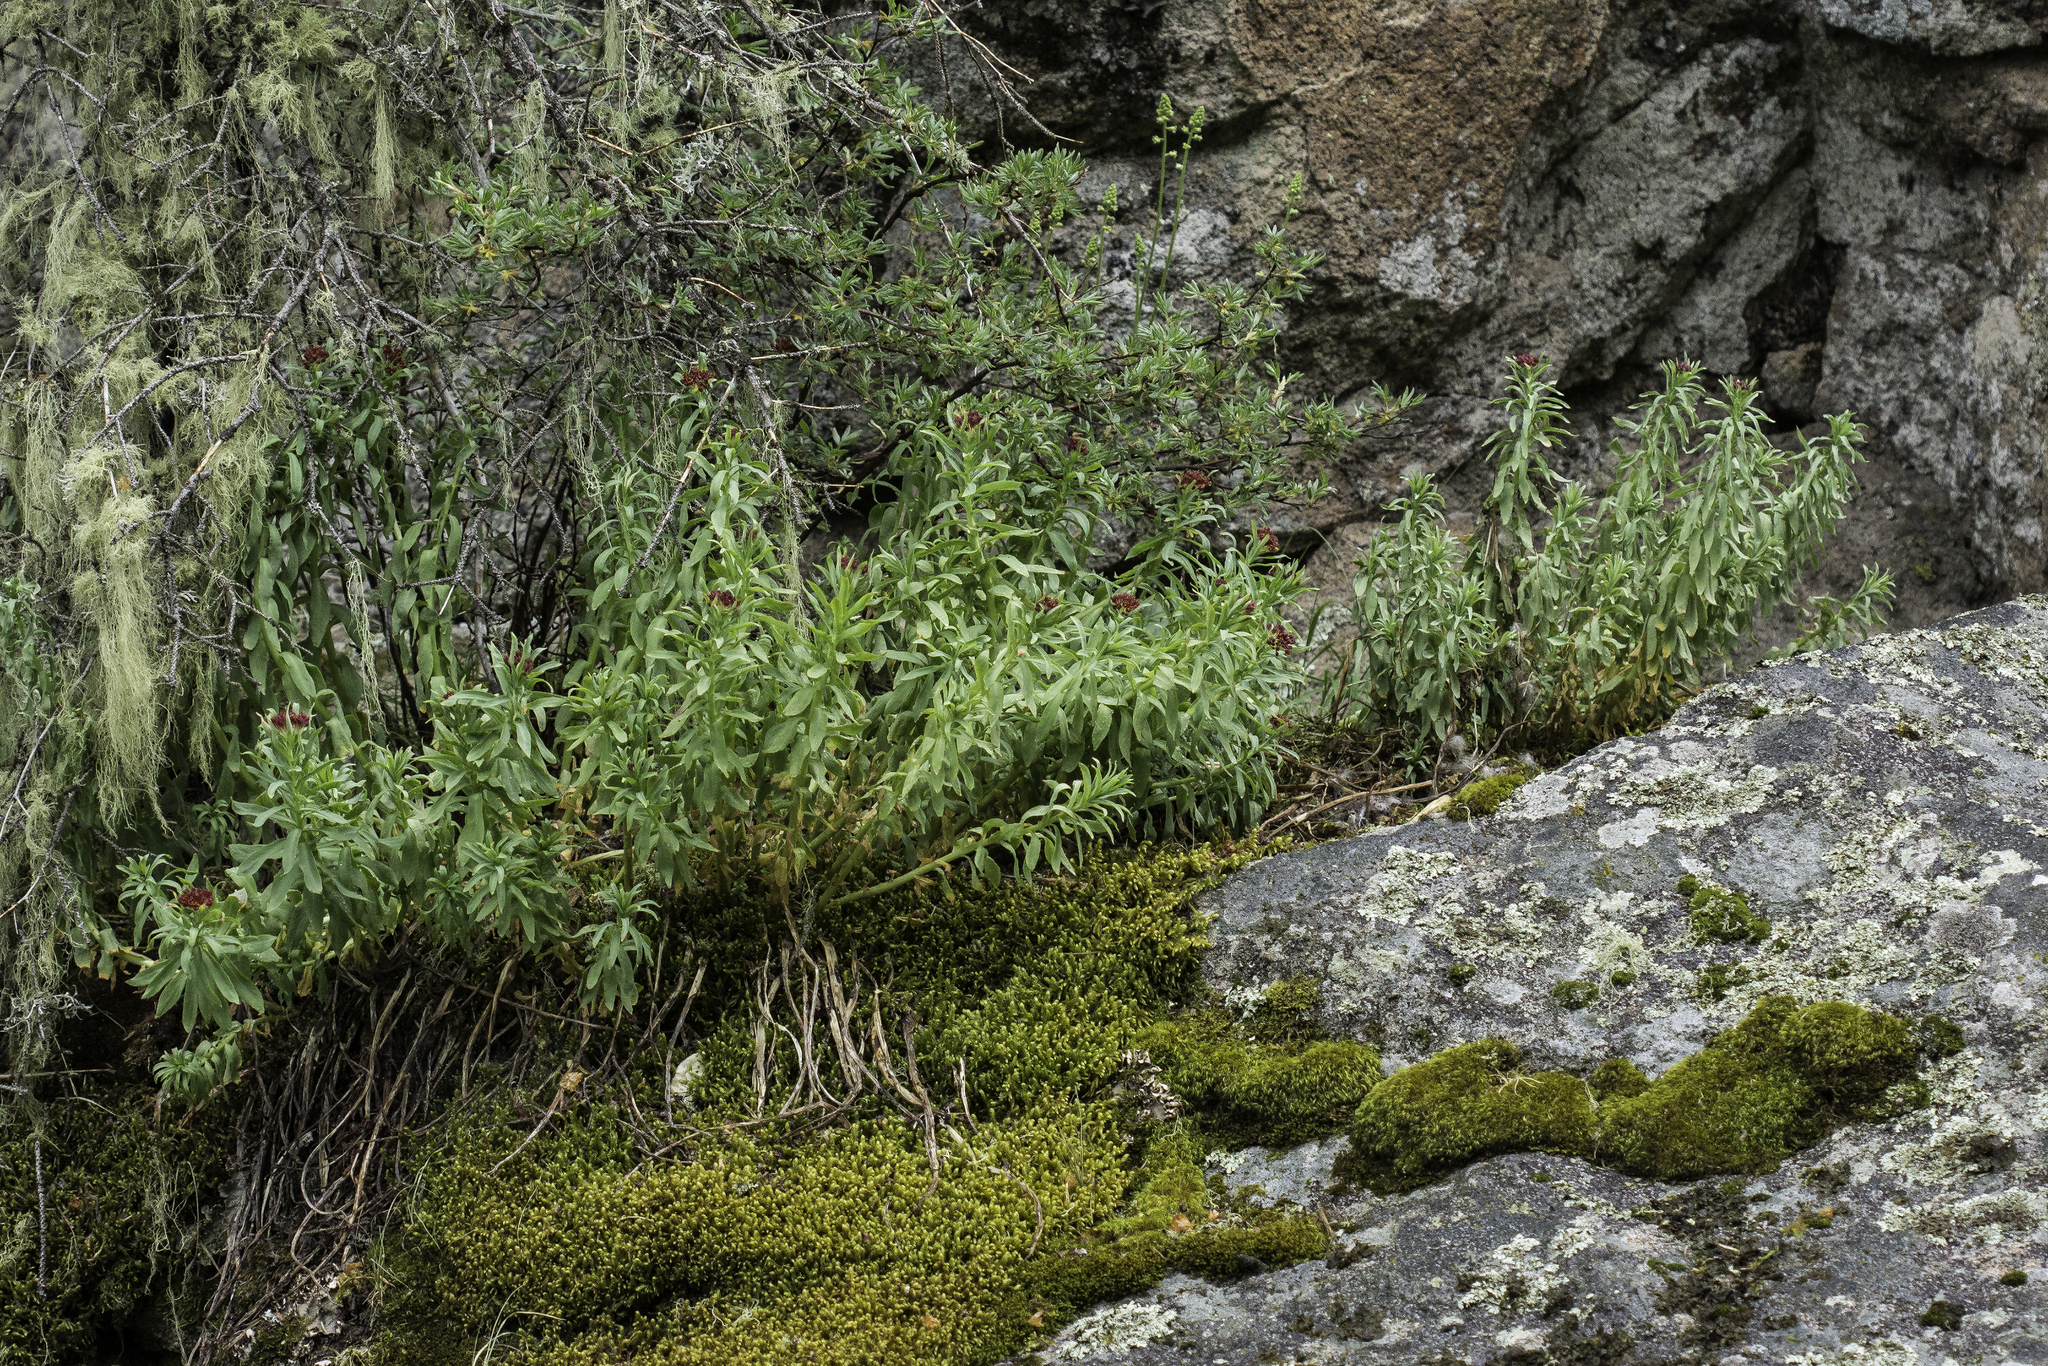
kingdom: Plantae
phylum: Tracheophyta
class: Magnoliopsida
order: Saxifragales
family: Crassulaceae
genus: Rhodiola
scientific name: Rhodiola integrifolia
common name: Western roseroot
